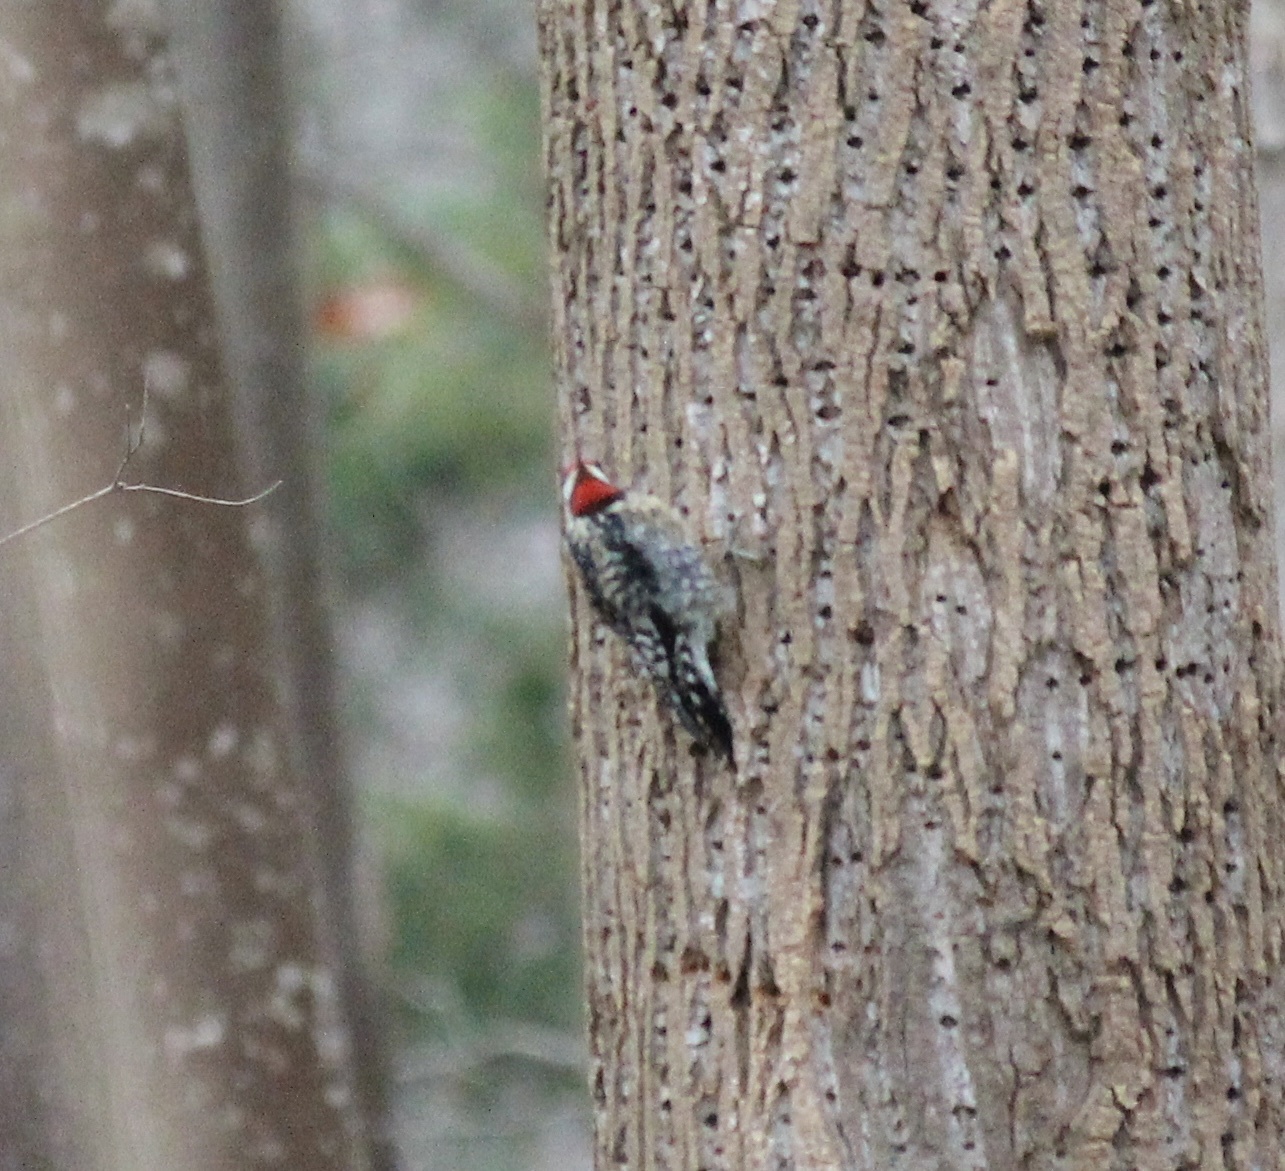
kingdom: Animalia
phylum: Chordata
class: Aves
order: Piciformes
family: Picidae
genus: Sphyrapicus
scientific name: Sphyrapicus varius
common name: Yellow-bellied sapsucker
